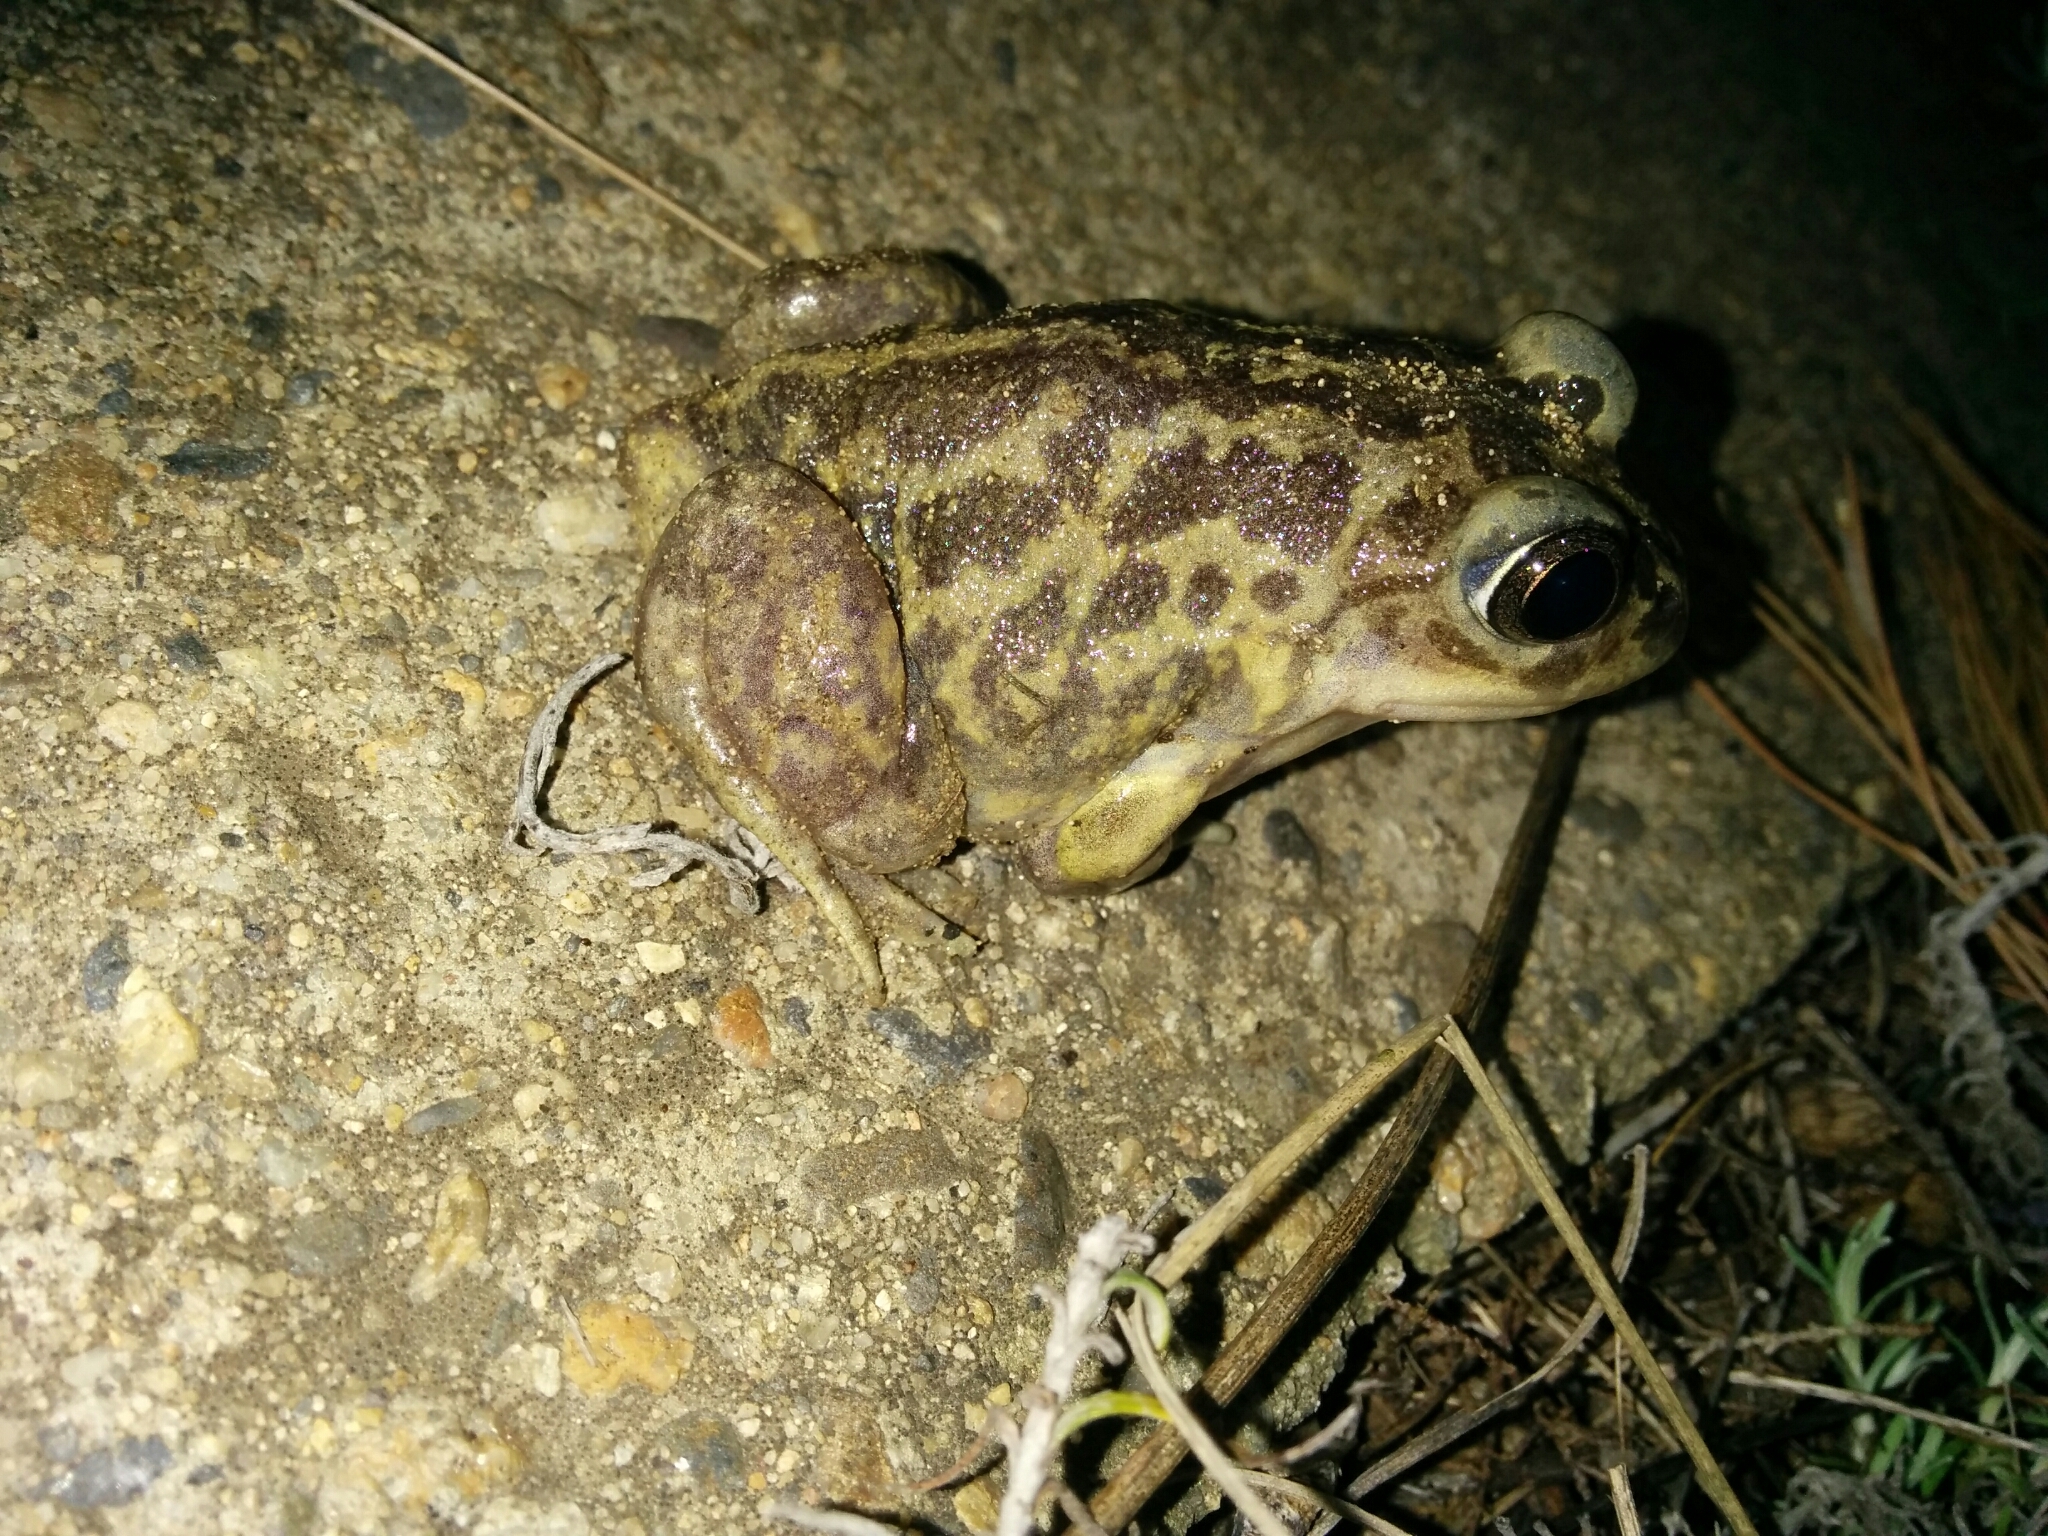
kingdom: Animalia
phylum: Chordata
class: Amphibia
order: Anura
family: Pelobatidae
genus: Pelobates
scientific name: Pelobates cultripes
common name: Western spadefoot
